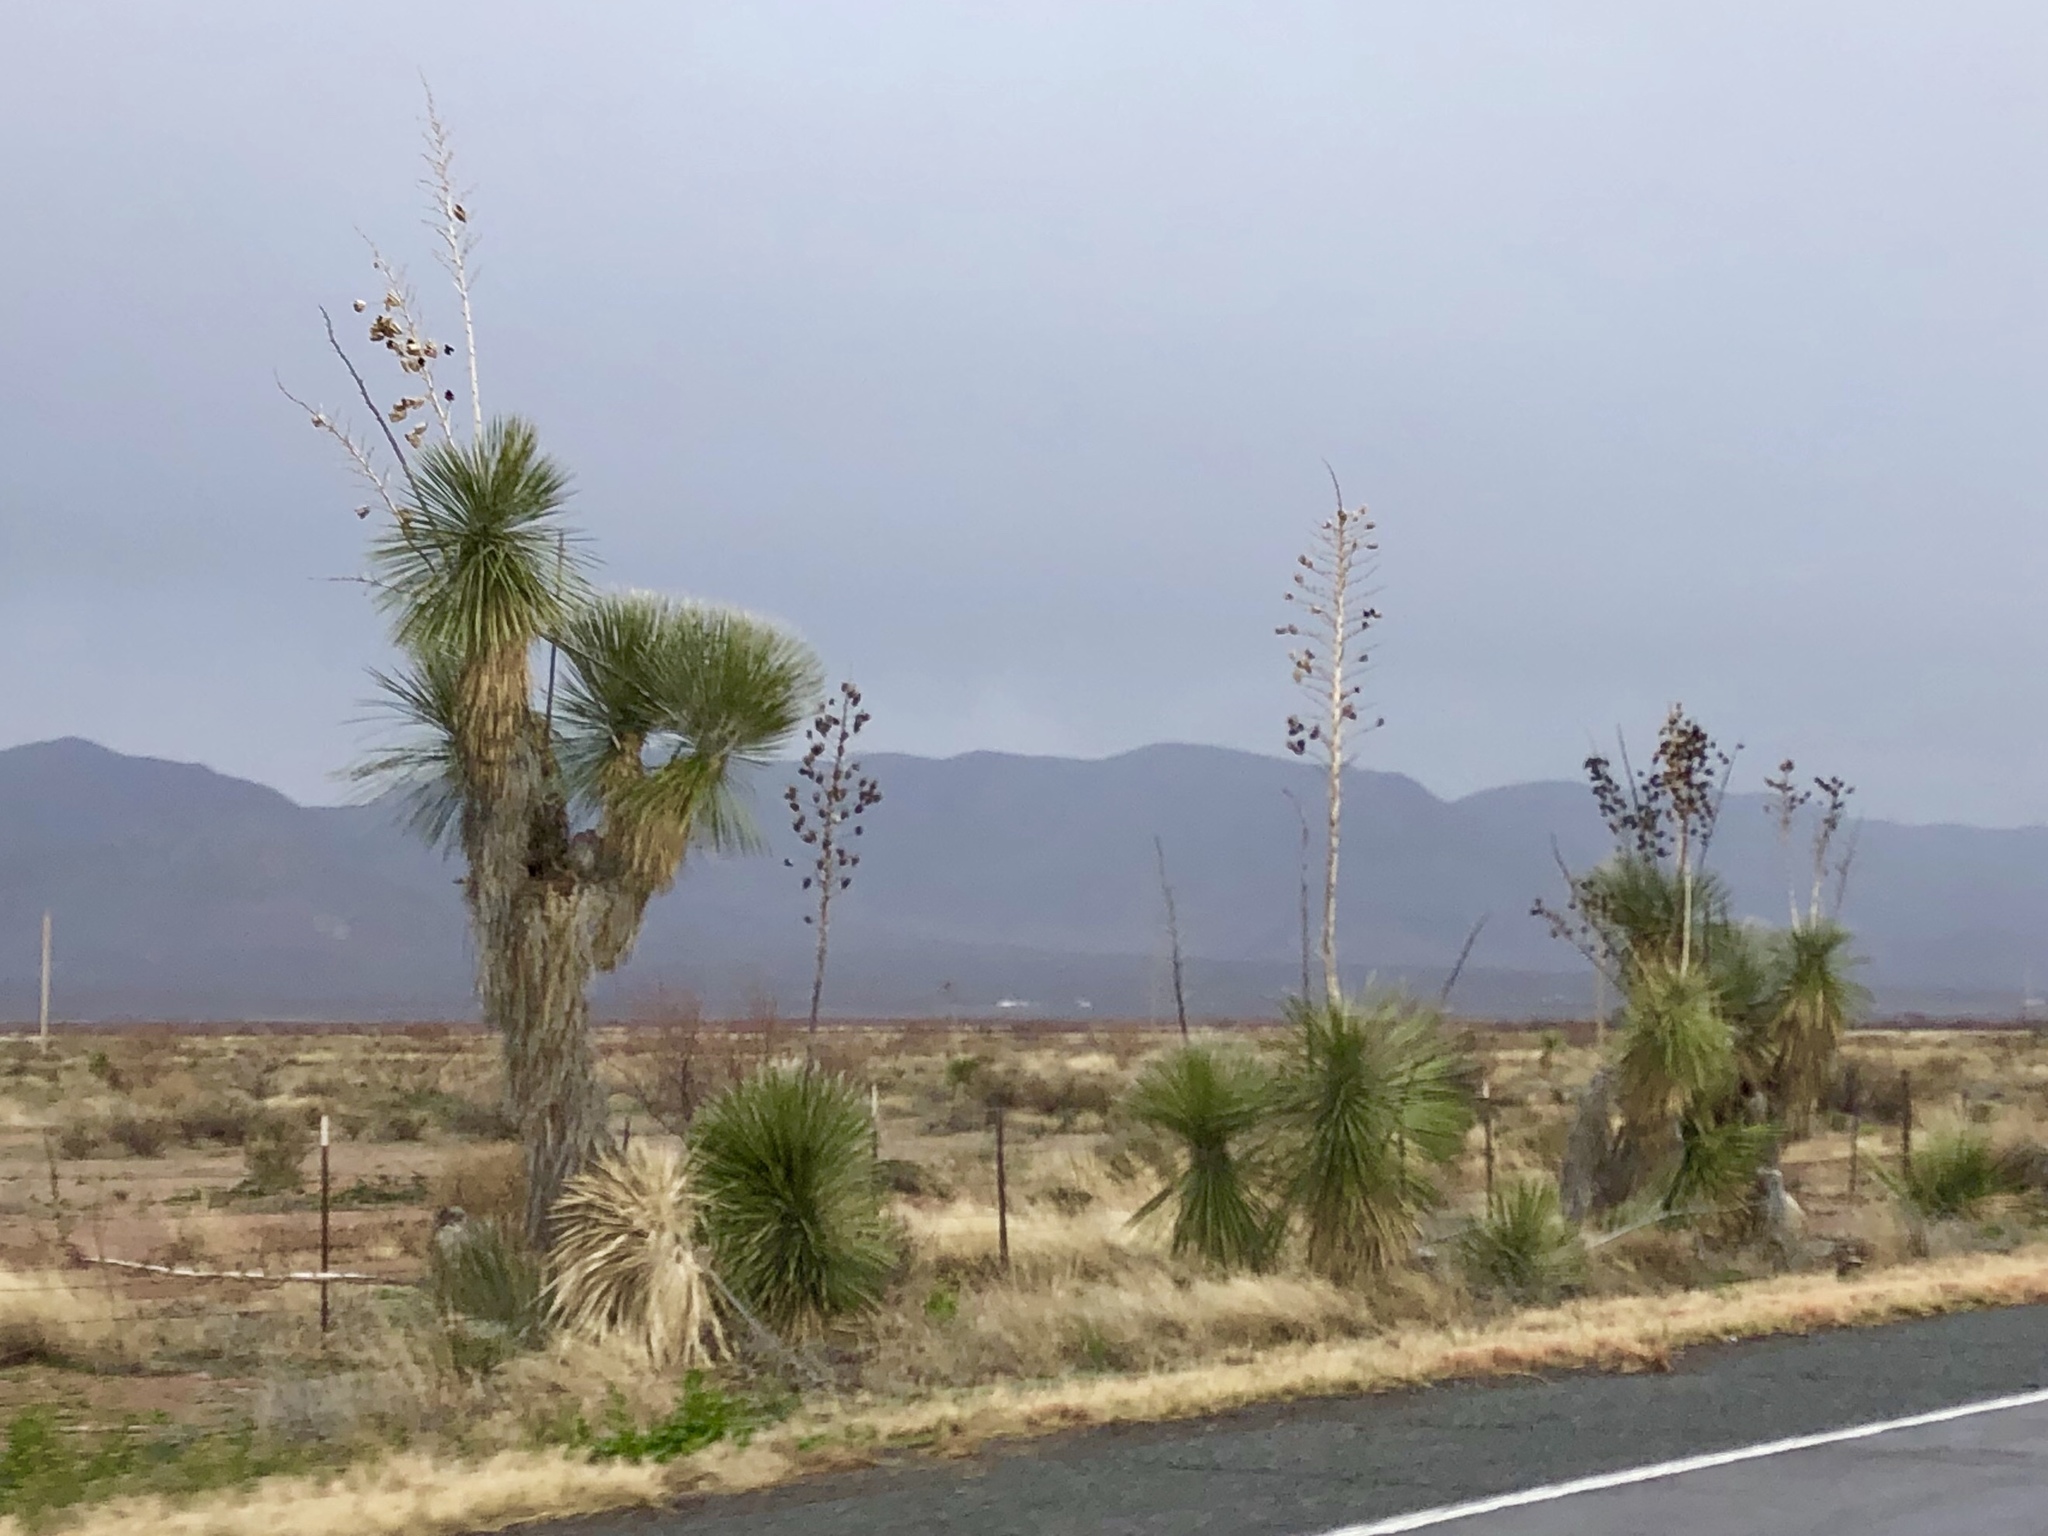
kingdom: Plantae
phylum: Tracheophyta
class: Liliopsida
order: Asparagales
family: Asparagaceae
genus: Yucca
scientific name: Yucca elata
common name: Palmella
